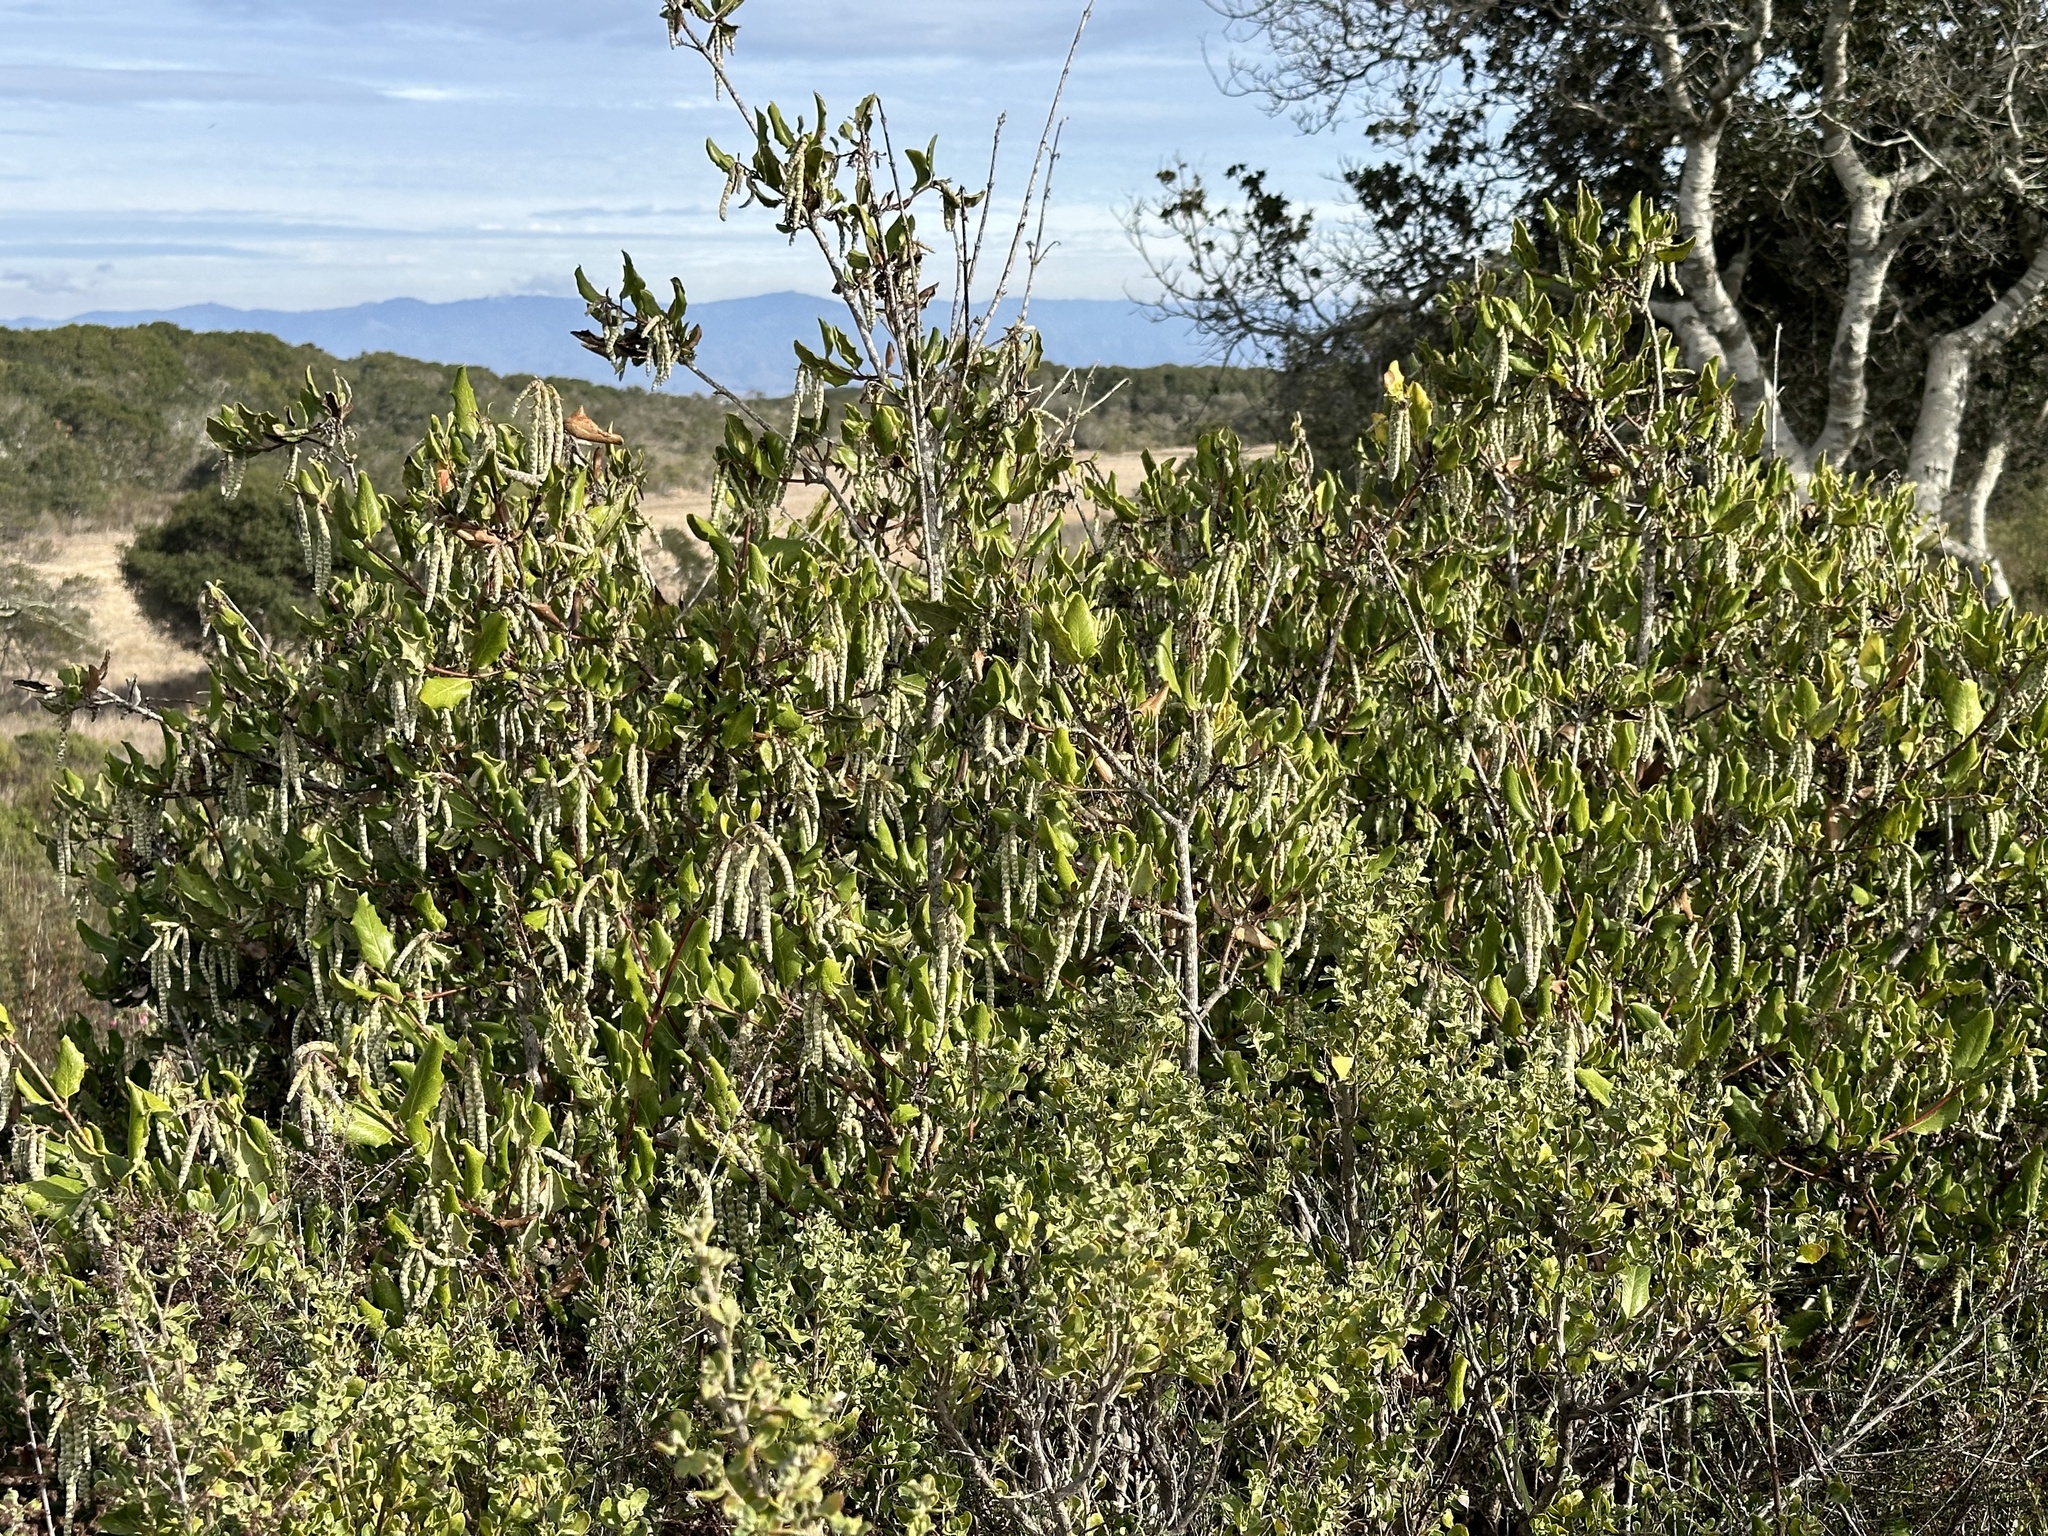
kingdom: Plantae
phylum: Tracheophyta
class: Magnoliopsida
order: Garryales
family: Garryaceae
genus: Garrya
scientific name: Garrya elliptica
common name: Silk-tassel
